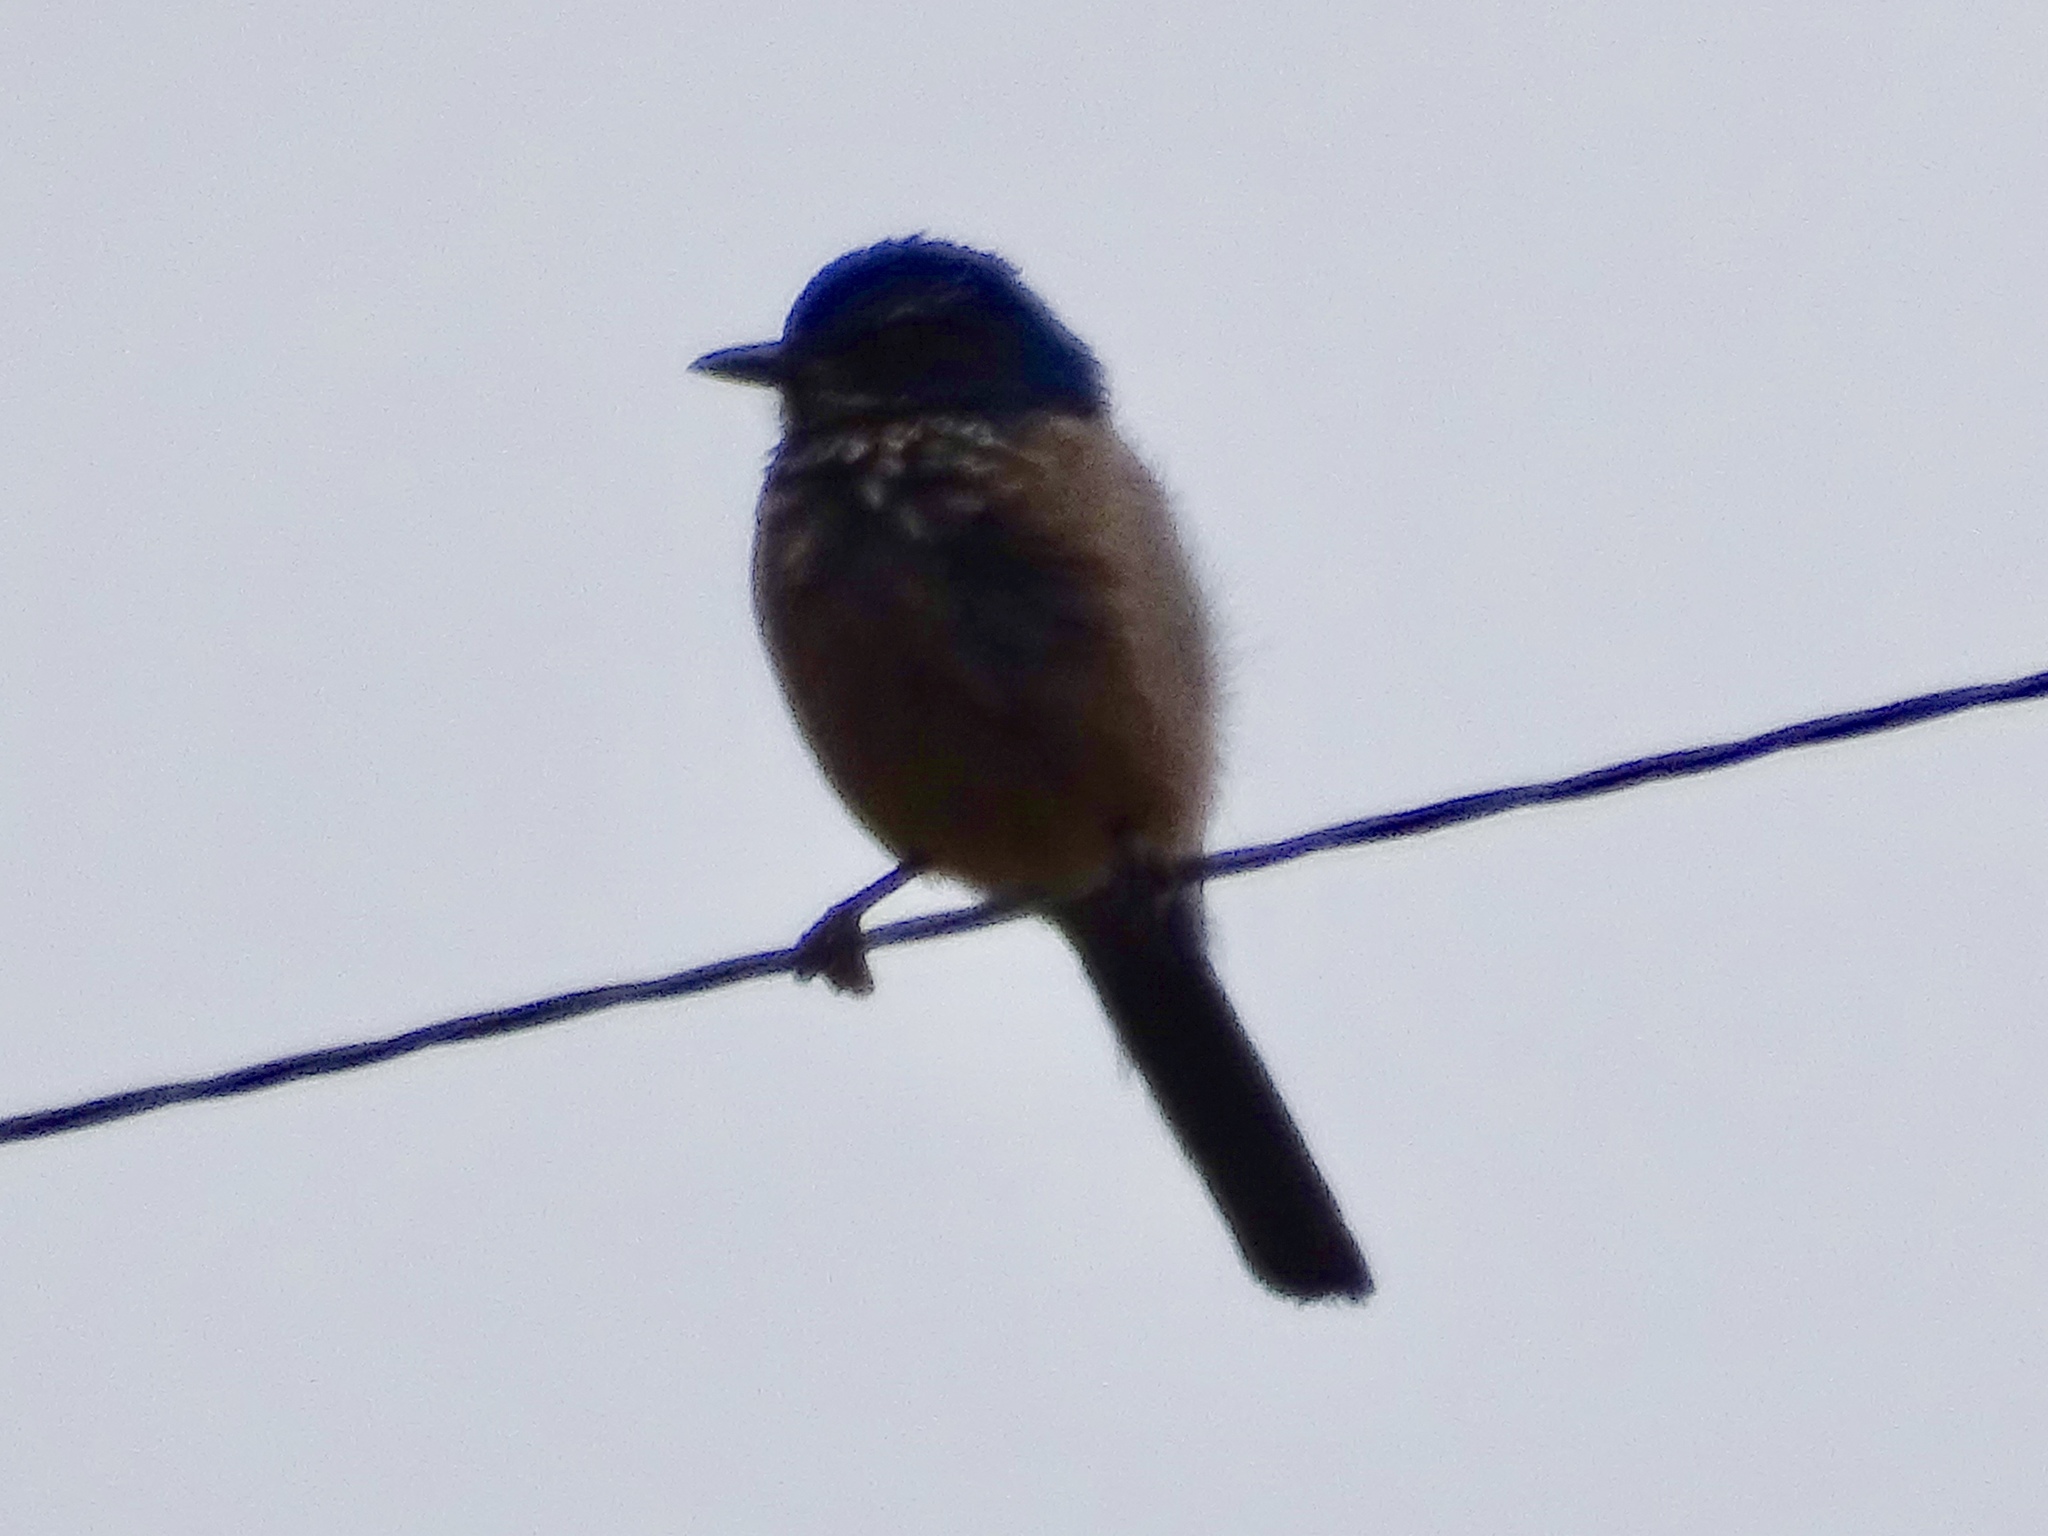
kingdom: Animalia
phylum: Chordata
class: Aves
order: Passeriformes
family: Corvidae
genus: Aphelocoma
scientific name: Aphelocoma woodhouseii
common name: Woodhouse's scrub-jay
